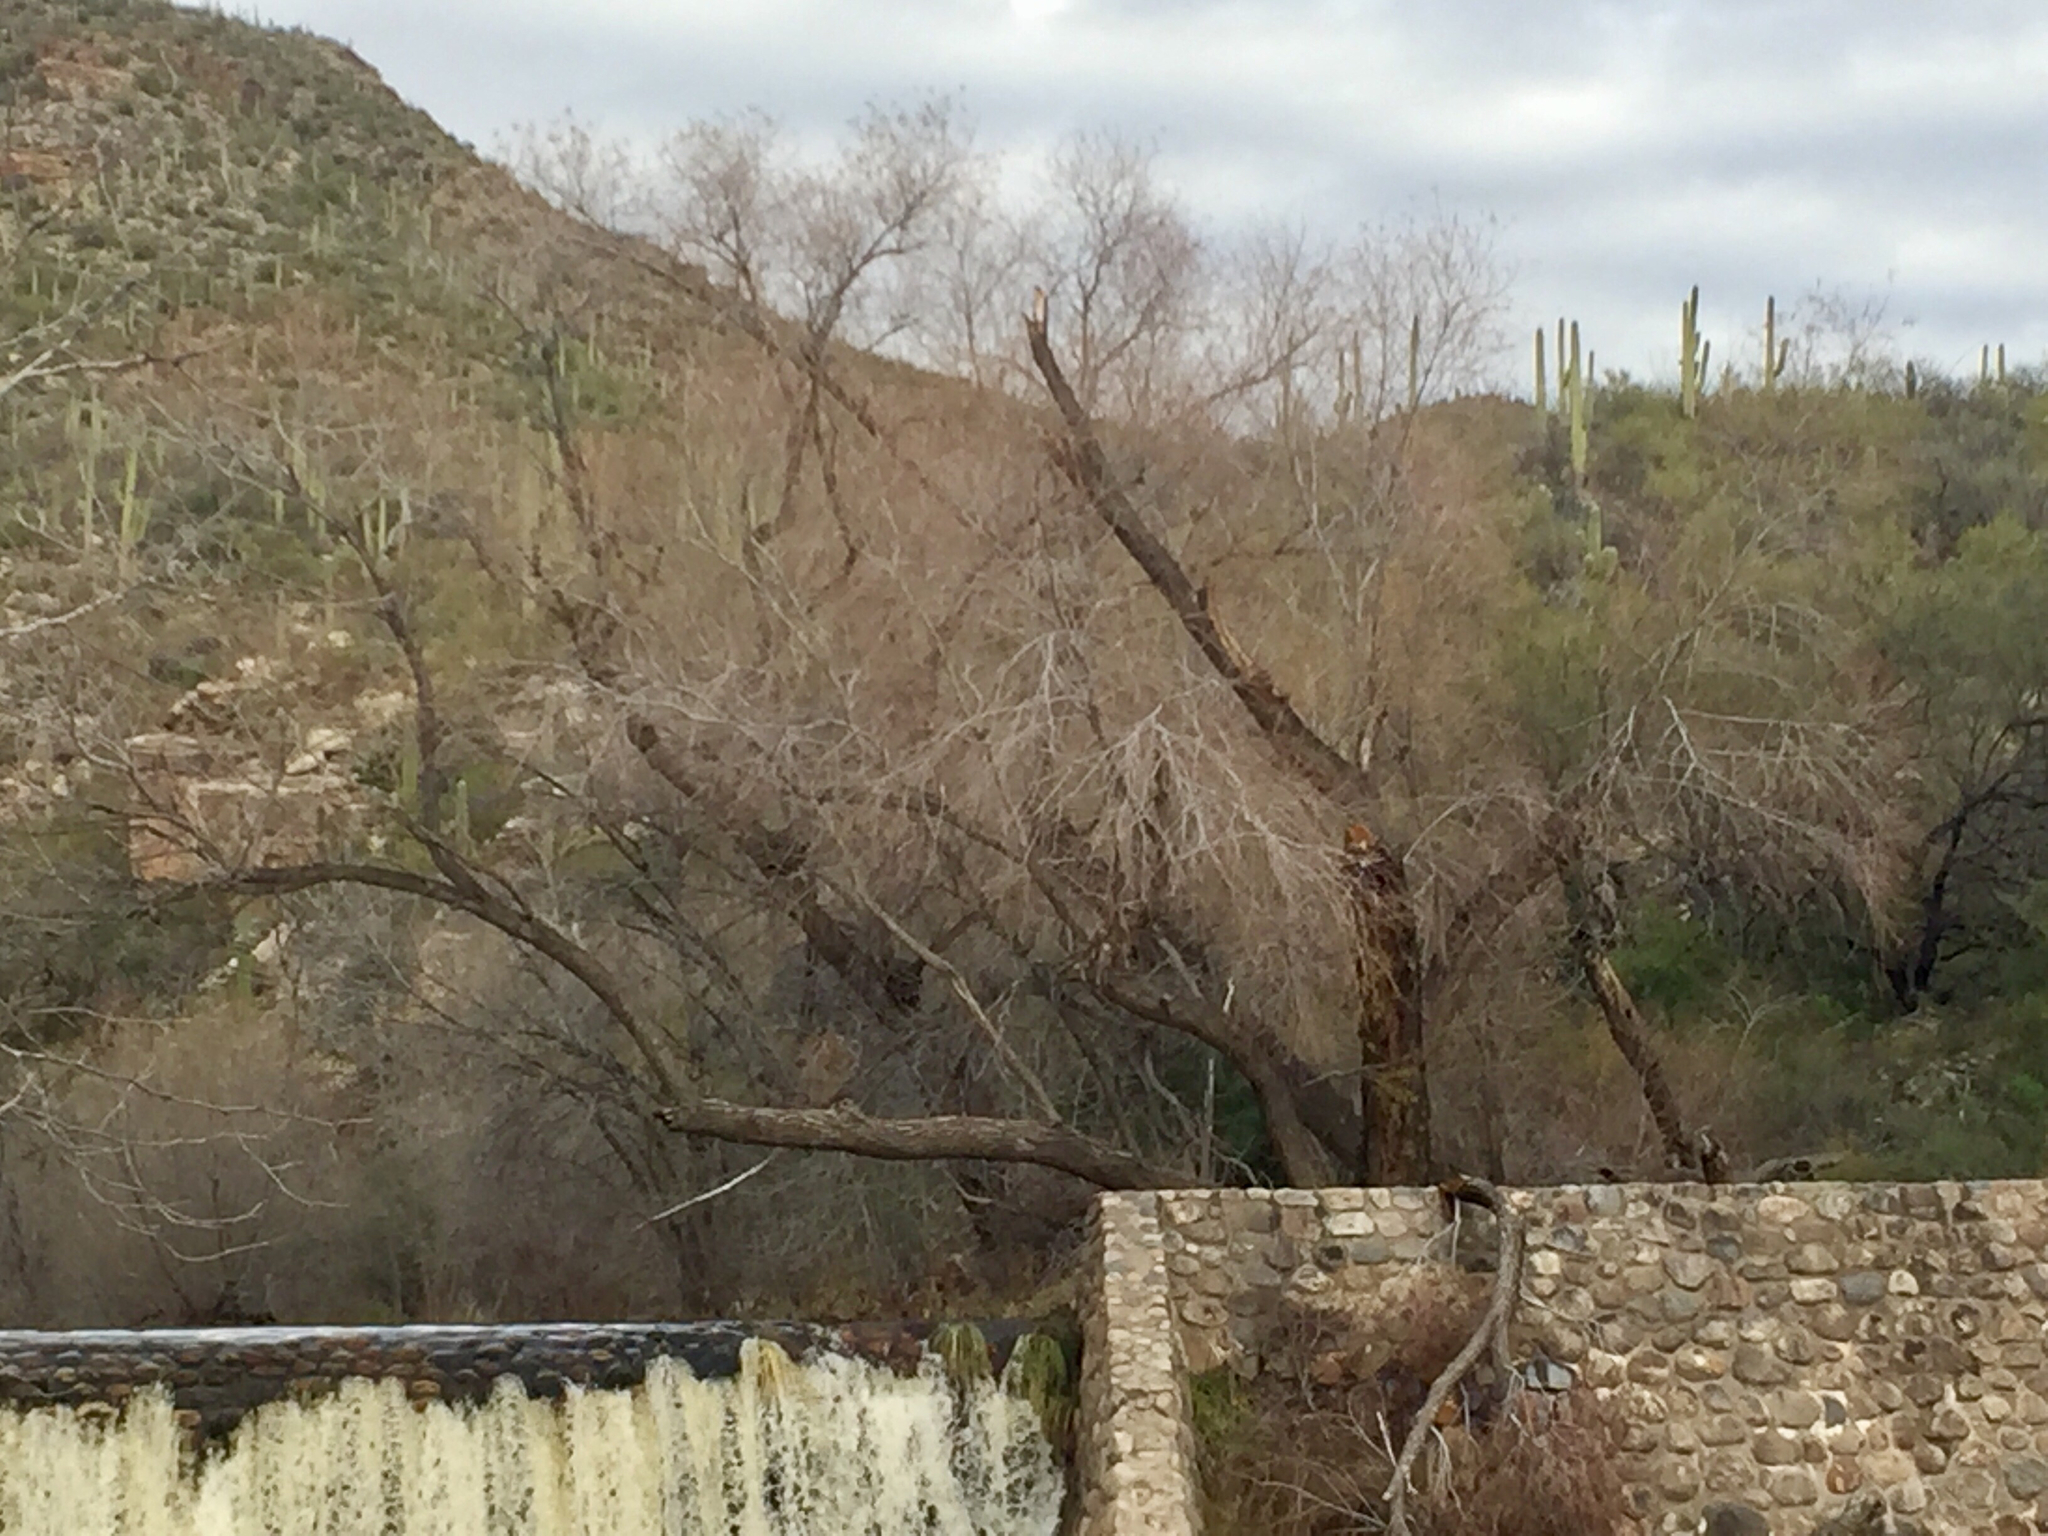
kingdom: Plantae
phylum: Tracheophyta
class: Magnoliopsida
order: Malpighiales
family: Salicaceae
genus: Salix
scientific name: Salix gooddingii
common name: Goodding's willow
